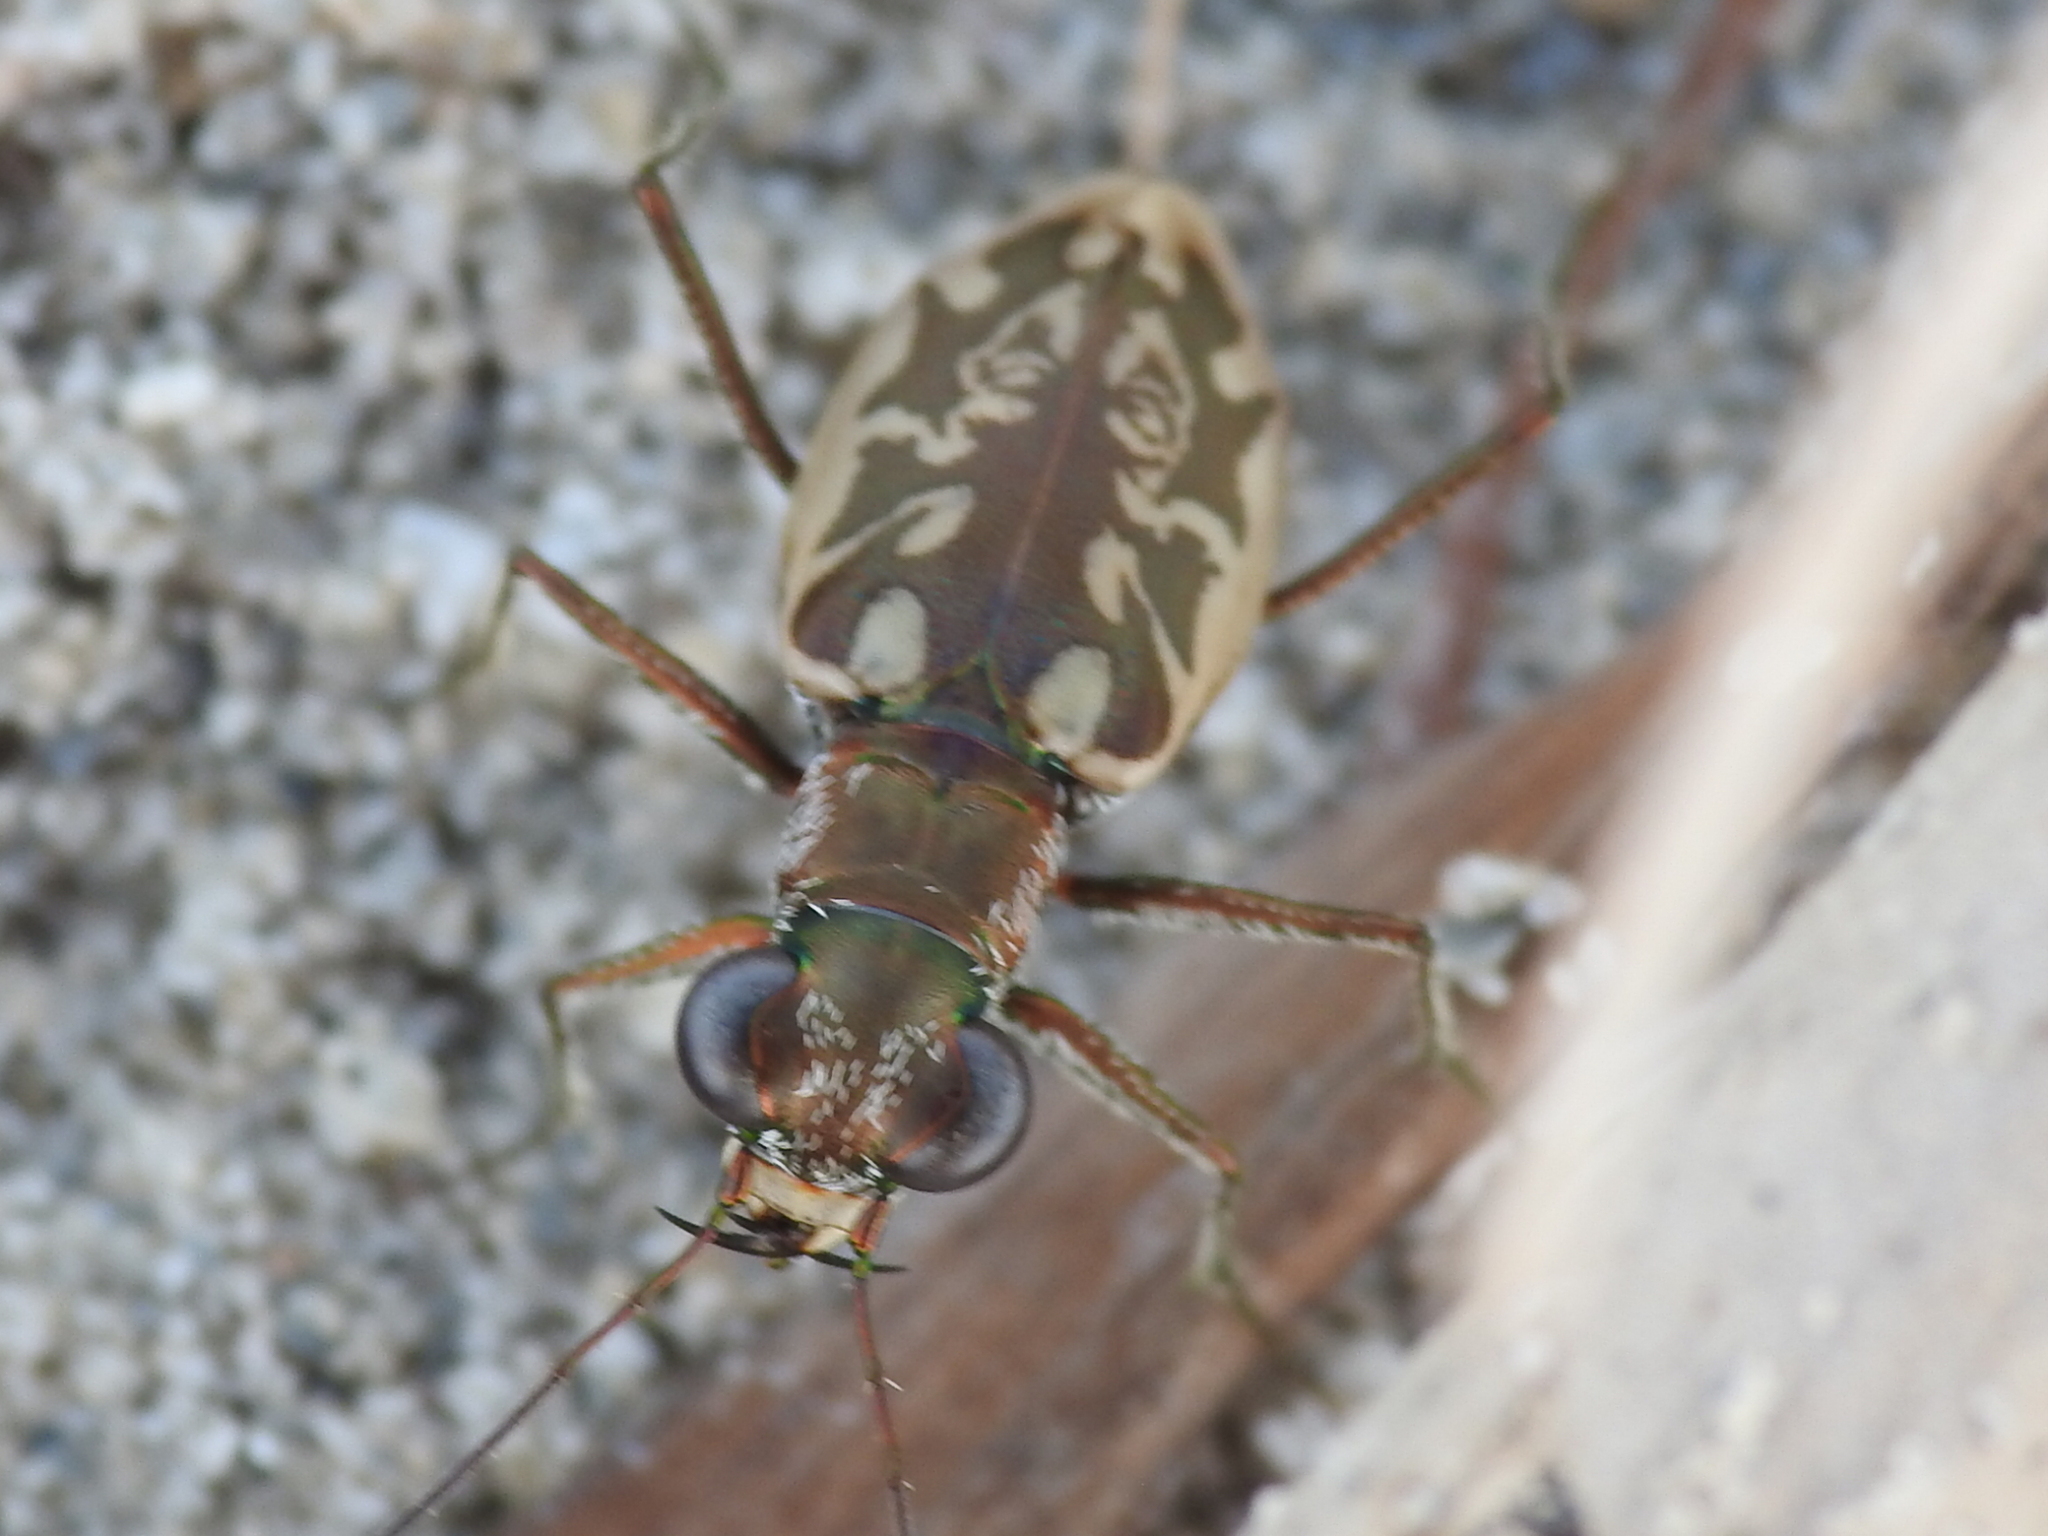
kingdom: Animalia
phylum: Arthropoda
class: Insecta
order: Coleoptera
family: Carabidae
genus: Ellipsoptera
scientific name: Ellipsoptera hamata
